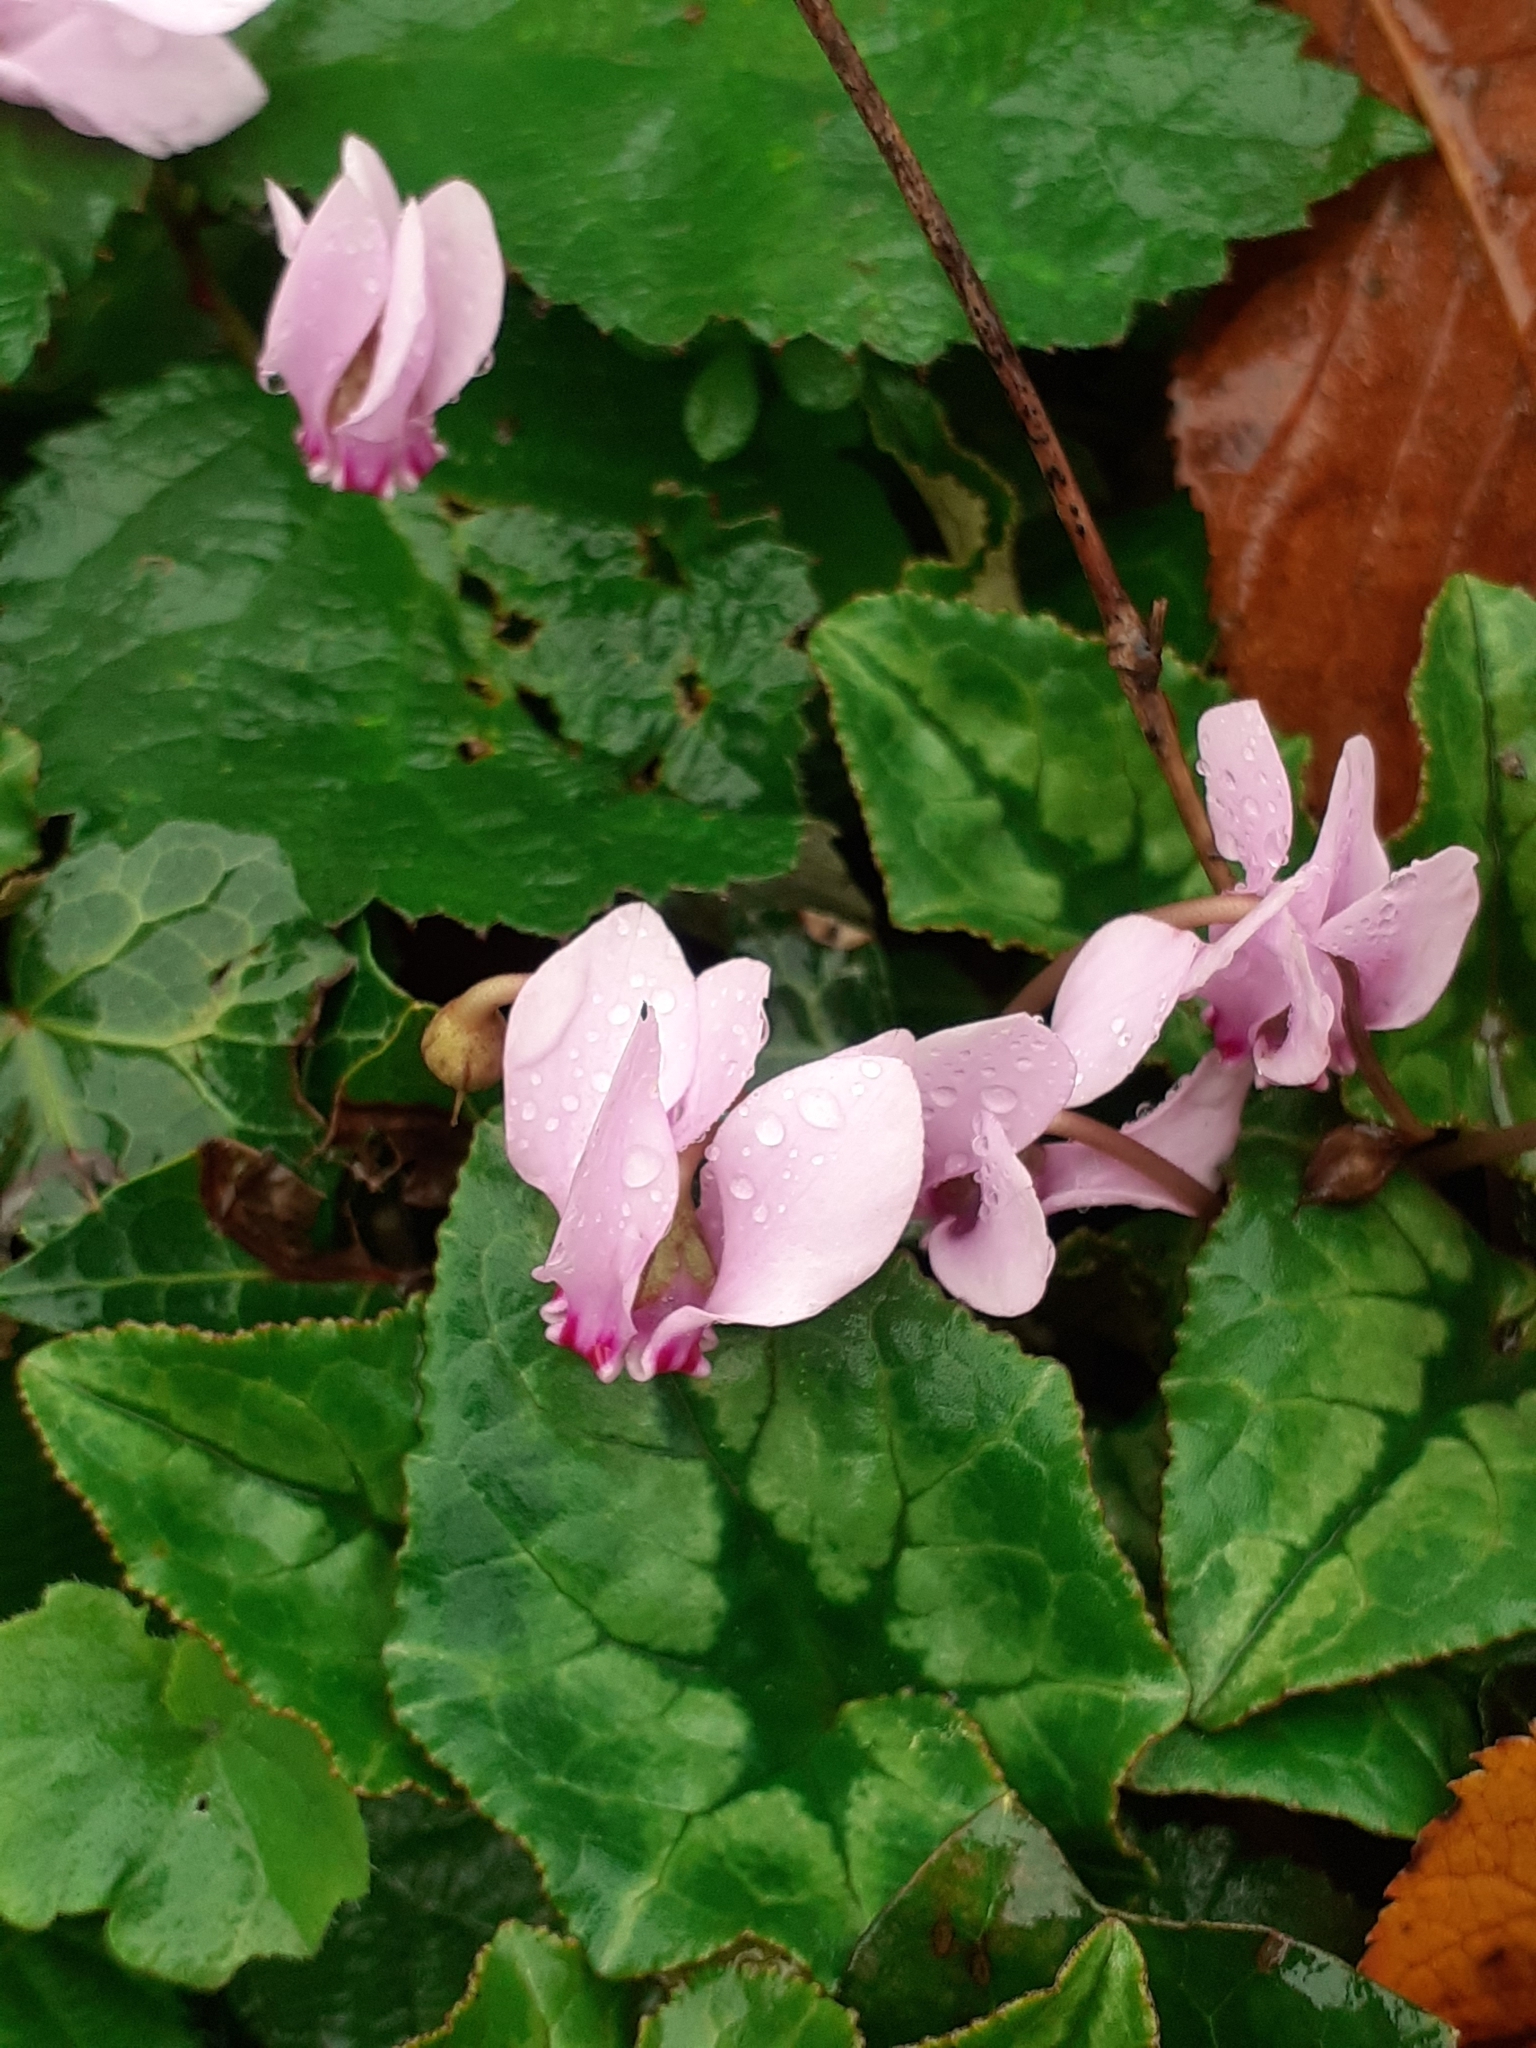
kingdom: Plantae
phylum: Tracheophyta
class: Magnoliopsida
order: Ericales
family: Primulaceae
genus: Cyclamen
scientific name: Cyclamen hederifolium
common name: Sowbread
